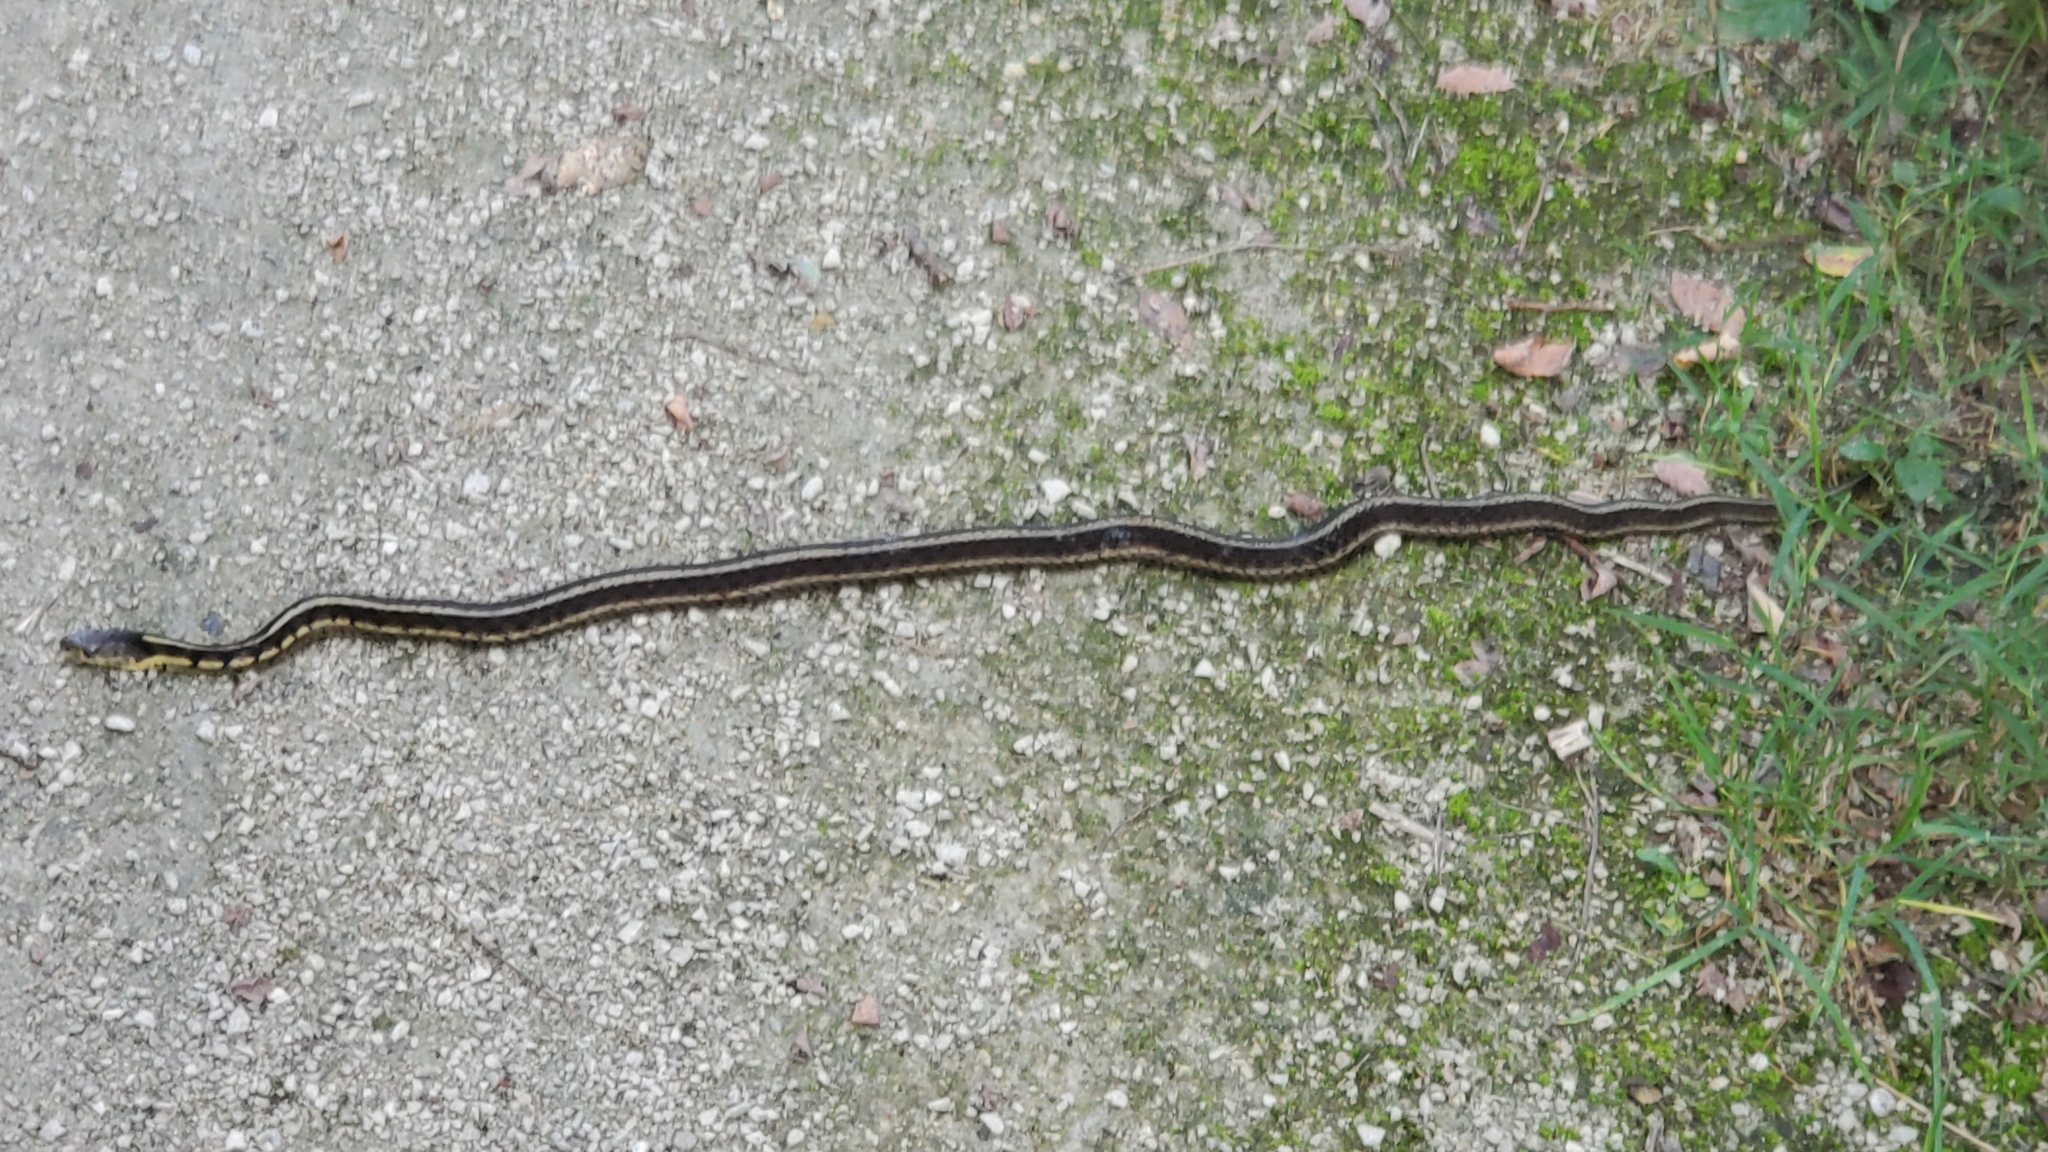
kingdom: Animalia
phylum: Chordata
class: Squamata
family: Colubridae
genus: Thamnophis
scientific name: Thamnophis sirtalis
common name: Common garter snake
